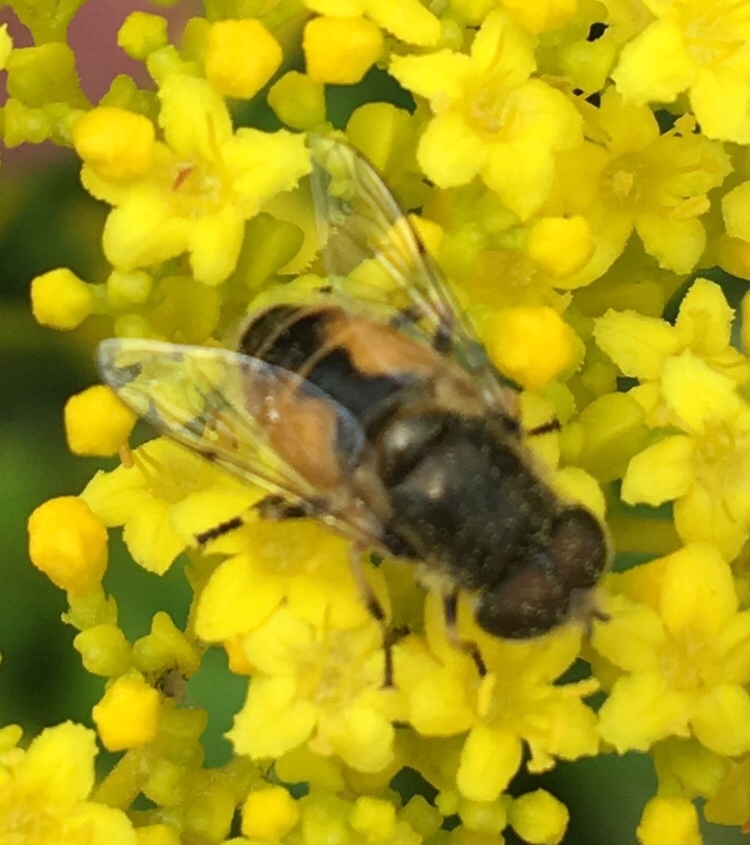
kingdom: Animalia
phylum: Arthropoda
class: Insecta
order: Diptera
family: Syrphidae
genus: Eristalis
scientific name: Eristalis arbustorum
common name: Hover fly
